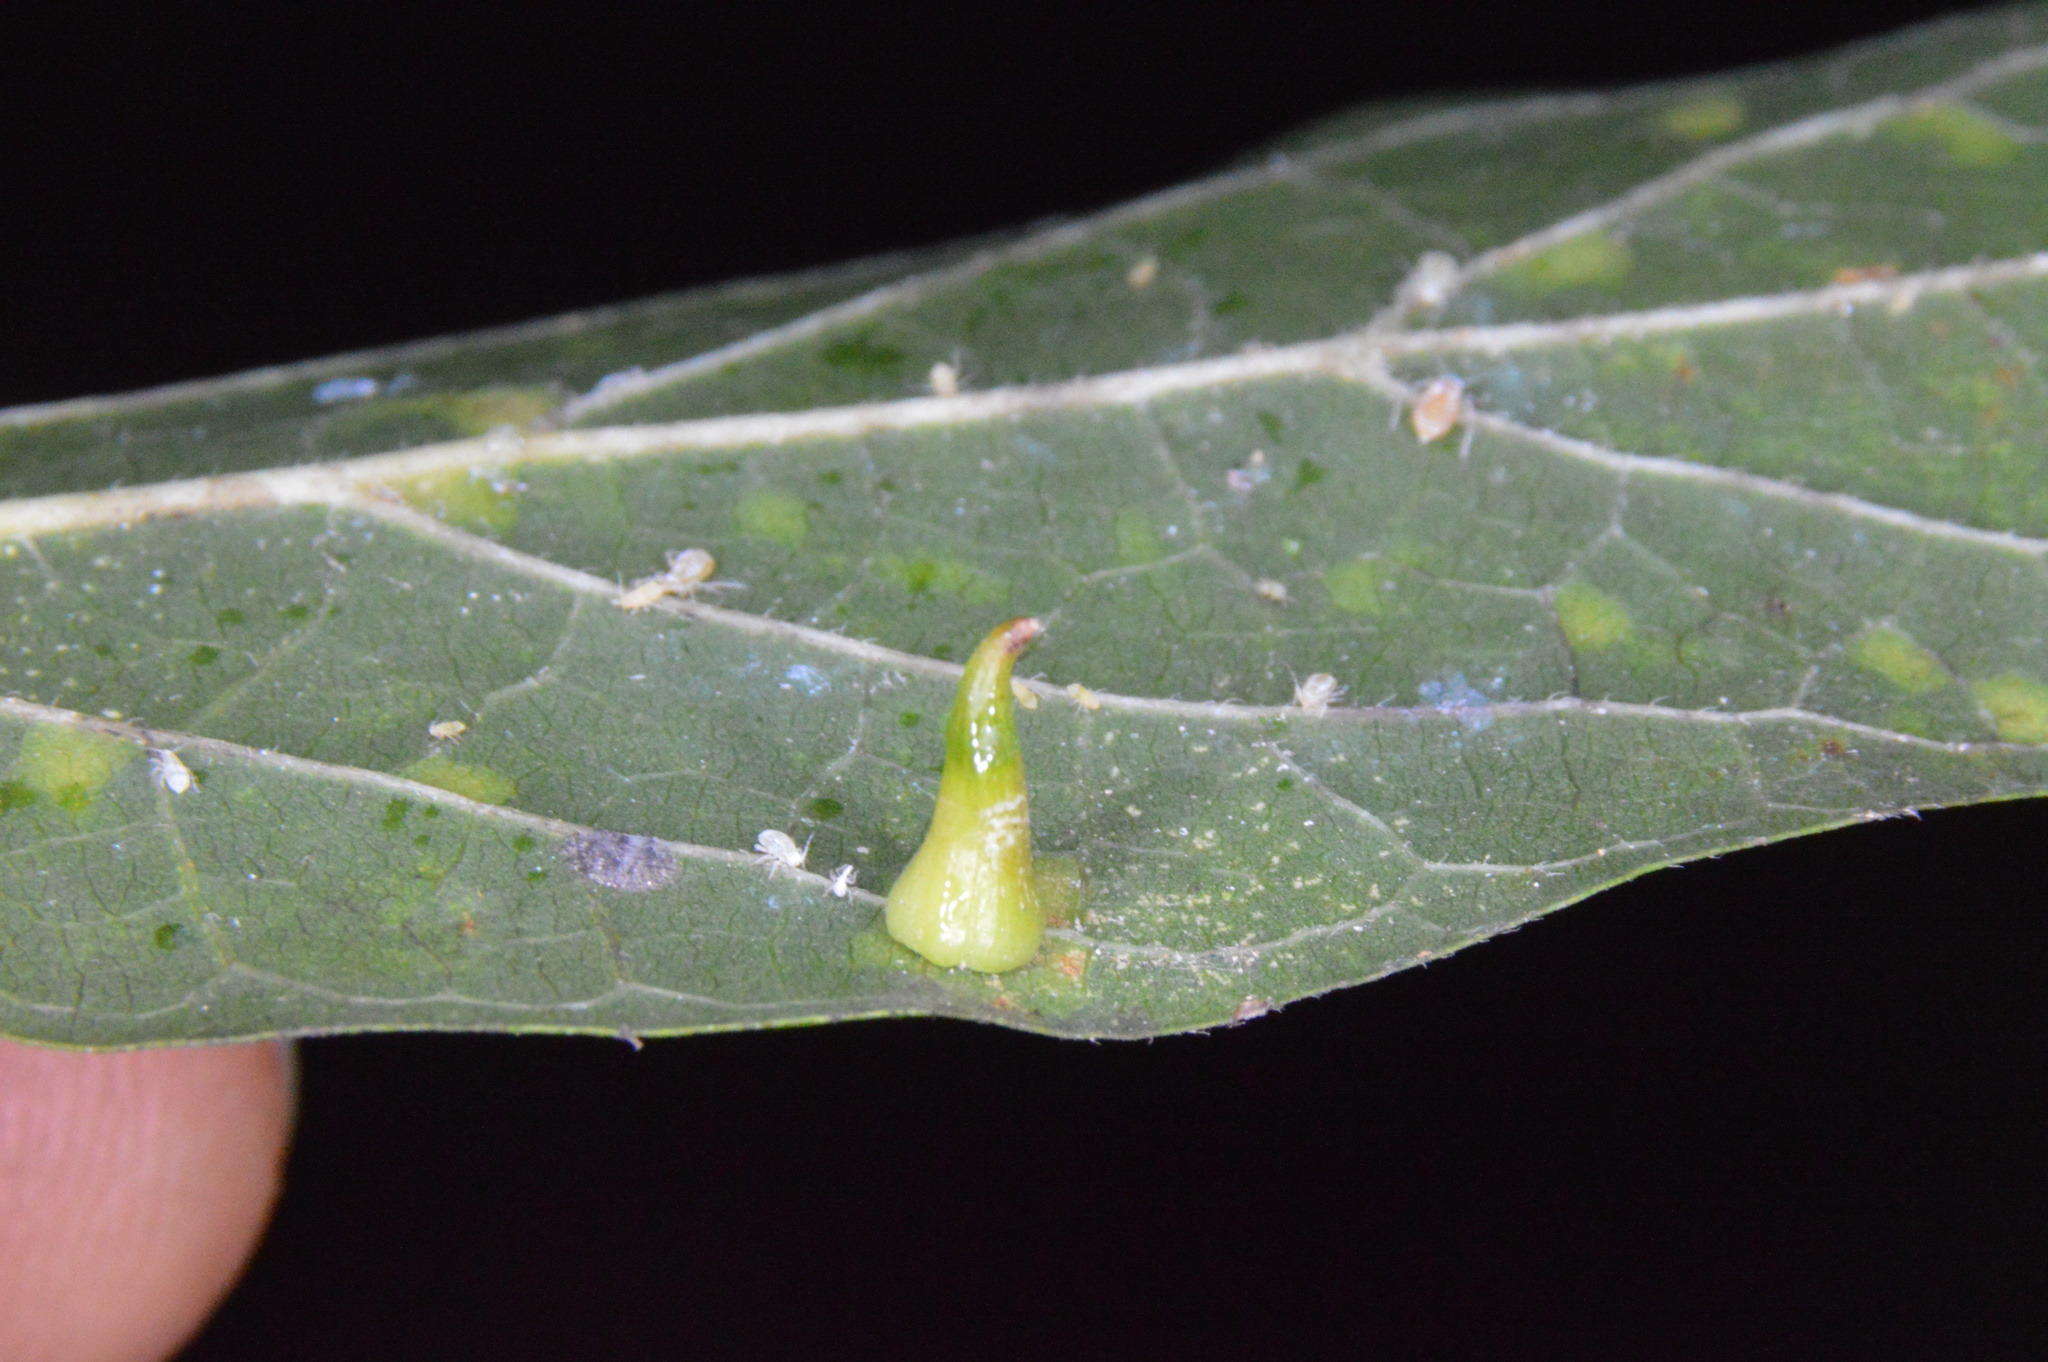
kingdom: Animalia
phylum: Arthropoda
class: Insecta
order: Diptera
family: Cecidomyiidae
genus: Celticecis
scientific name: Celticecis subulata
